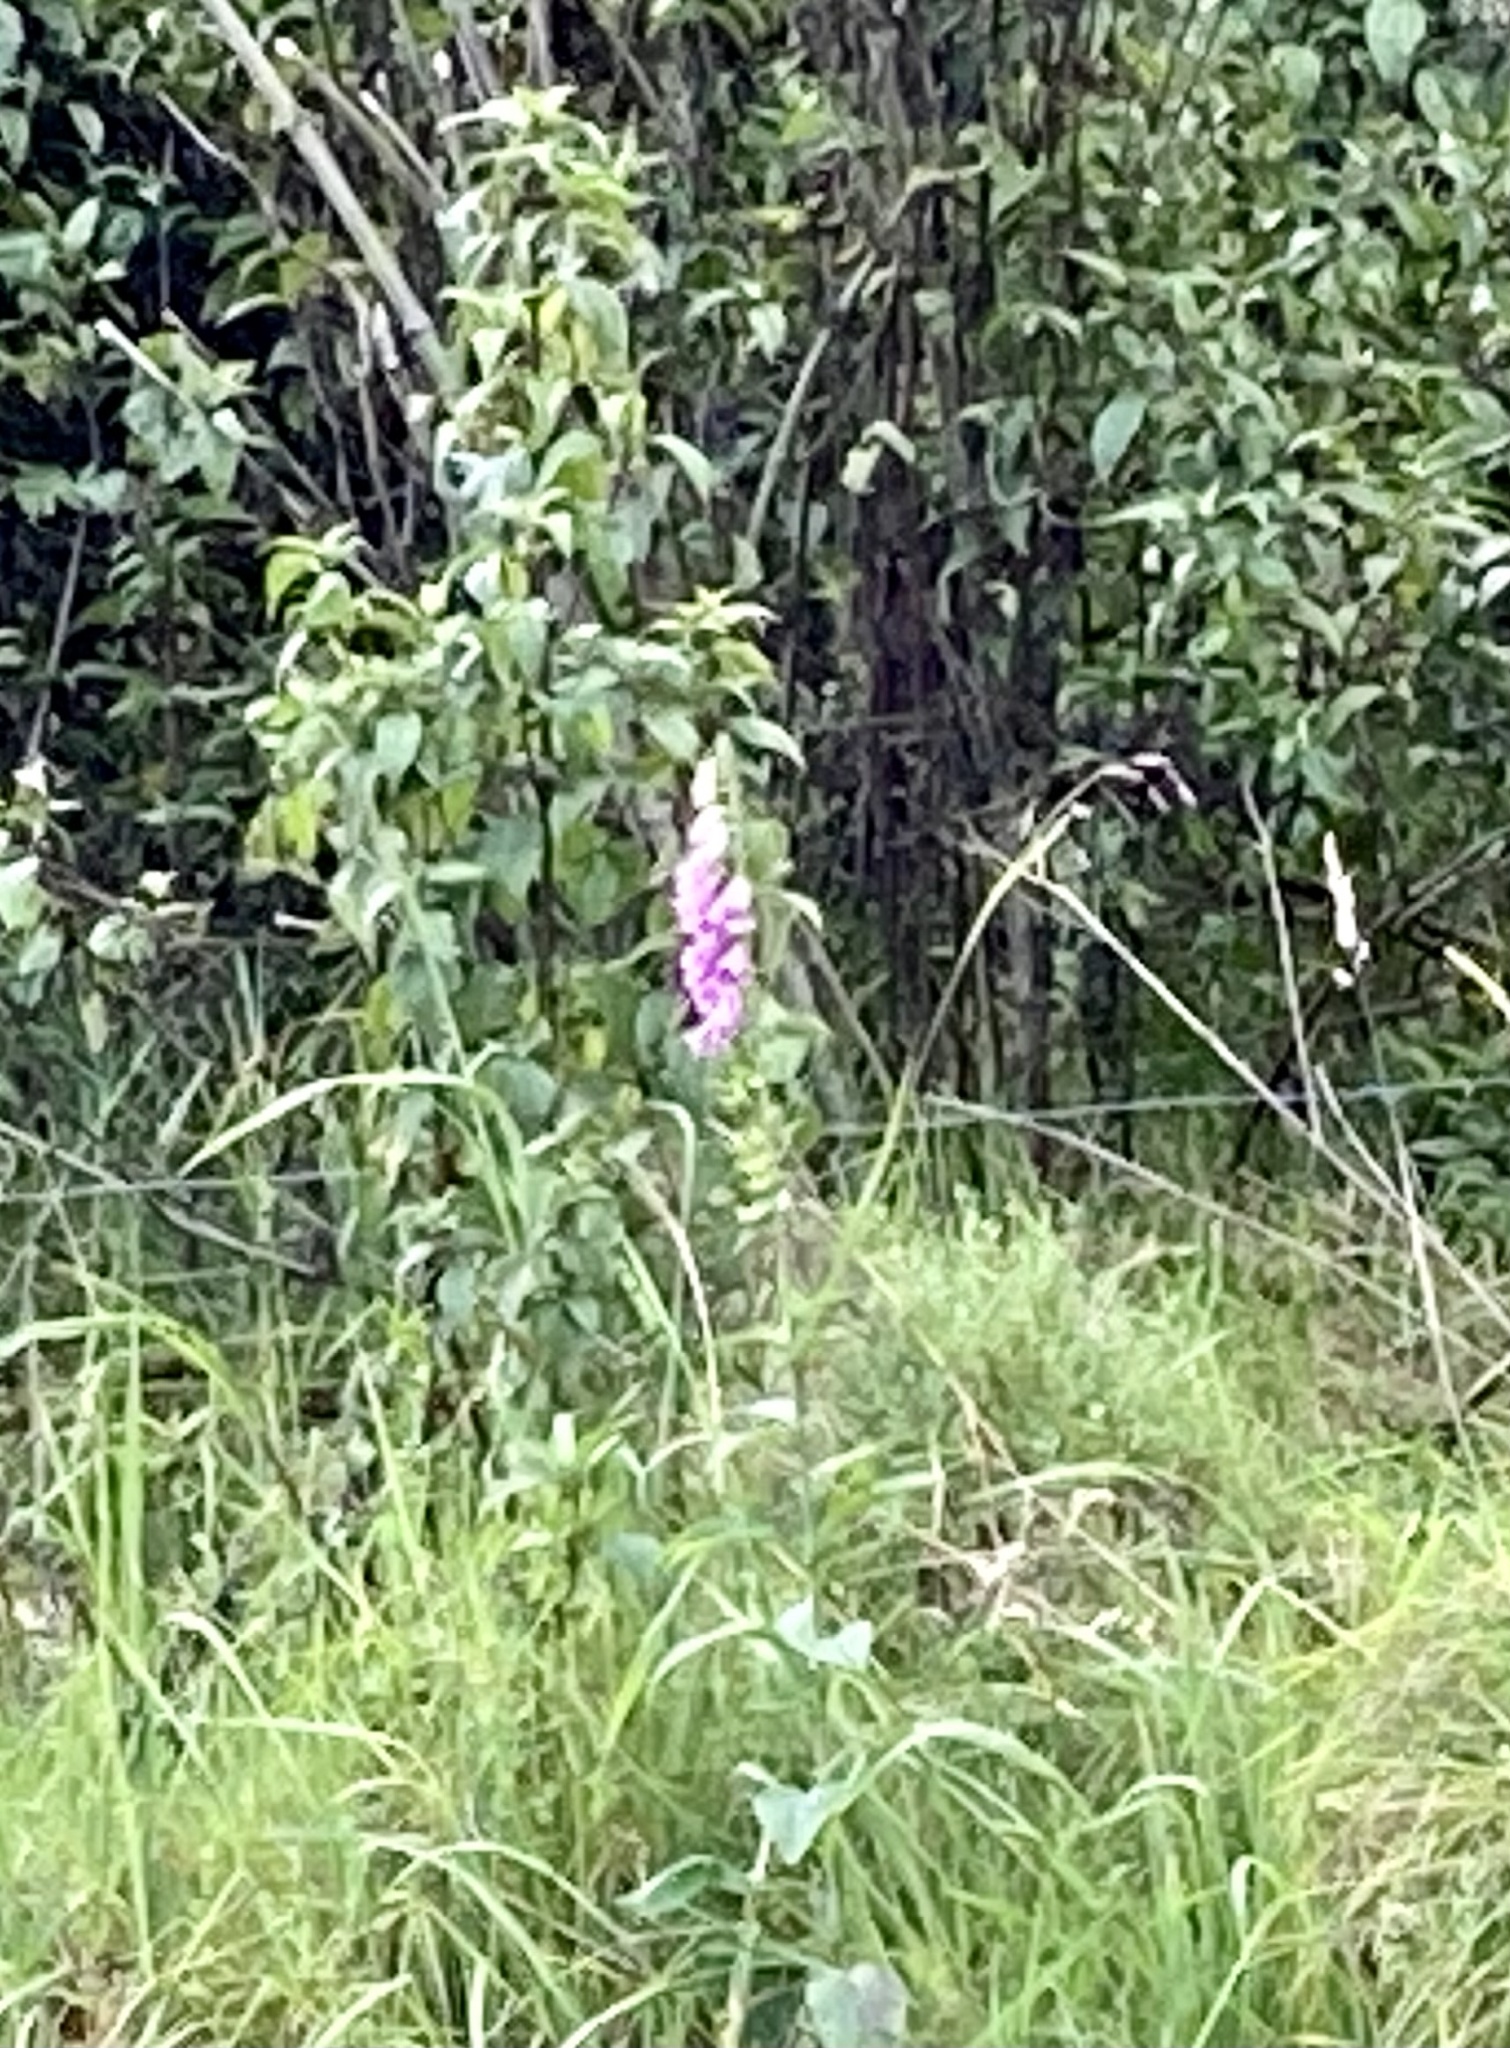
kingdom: Plantae
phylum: Tracheophyta
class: Magnoliopsida
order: Lamiales
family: Plantaginaceae
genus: Digitalis
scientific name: Digitalis purpurea
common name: Foxglove
